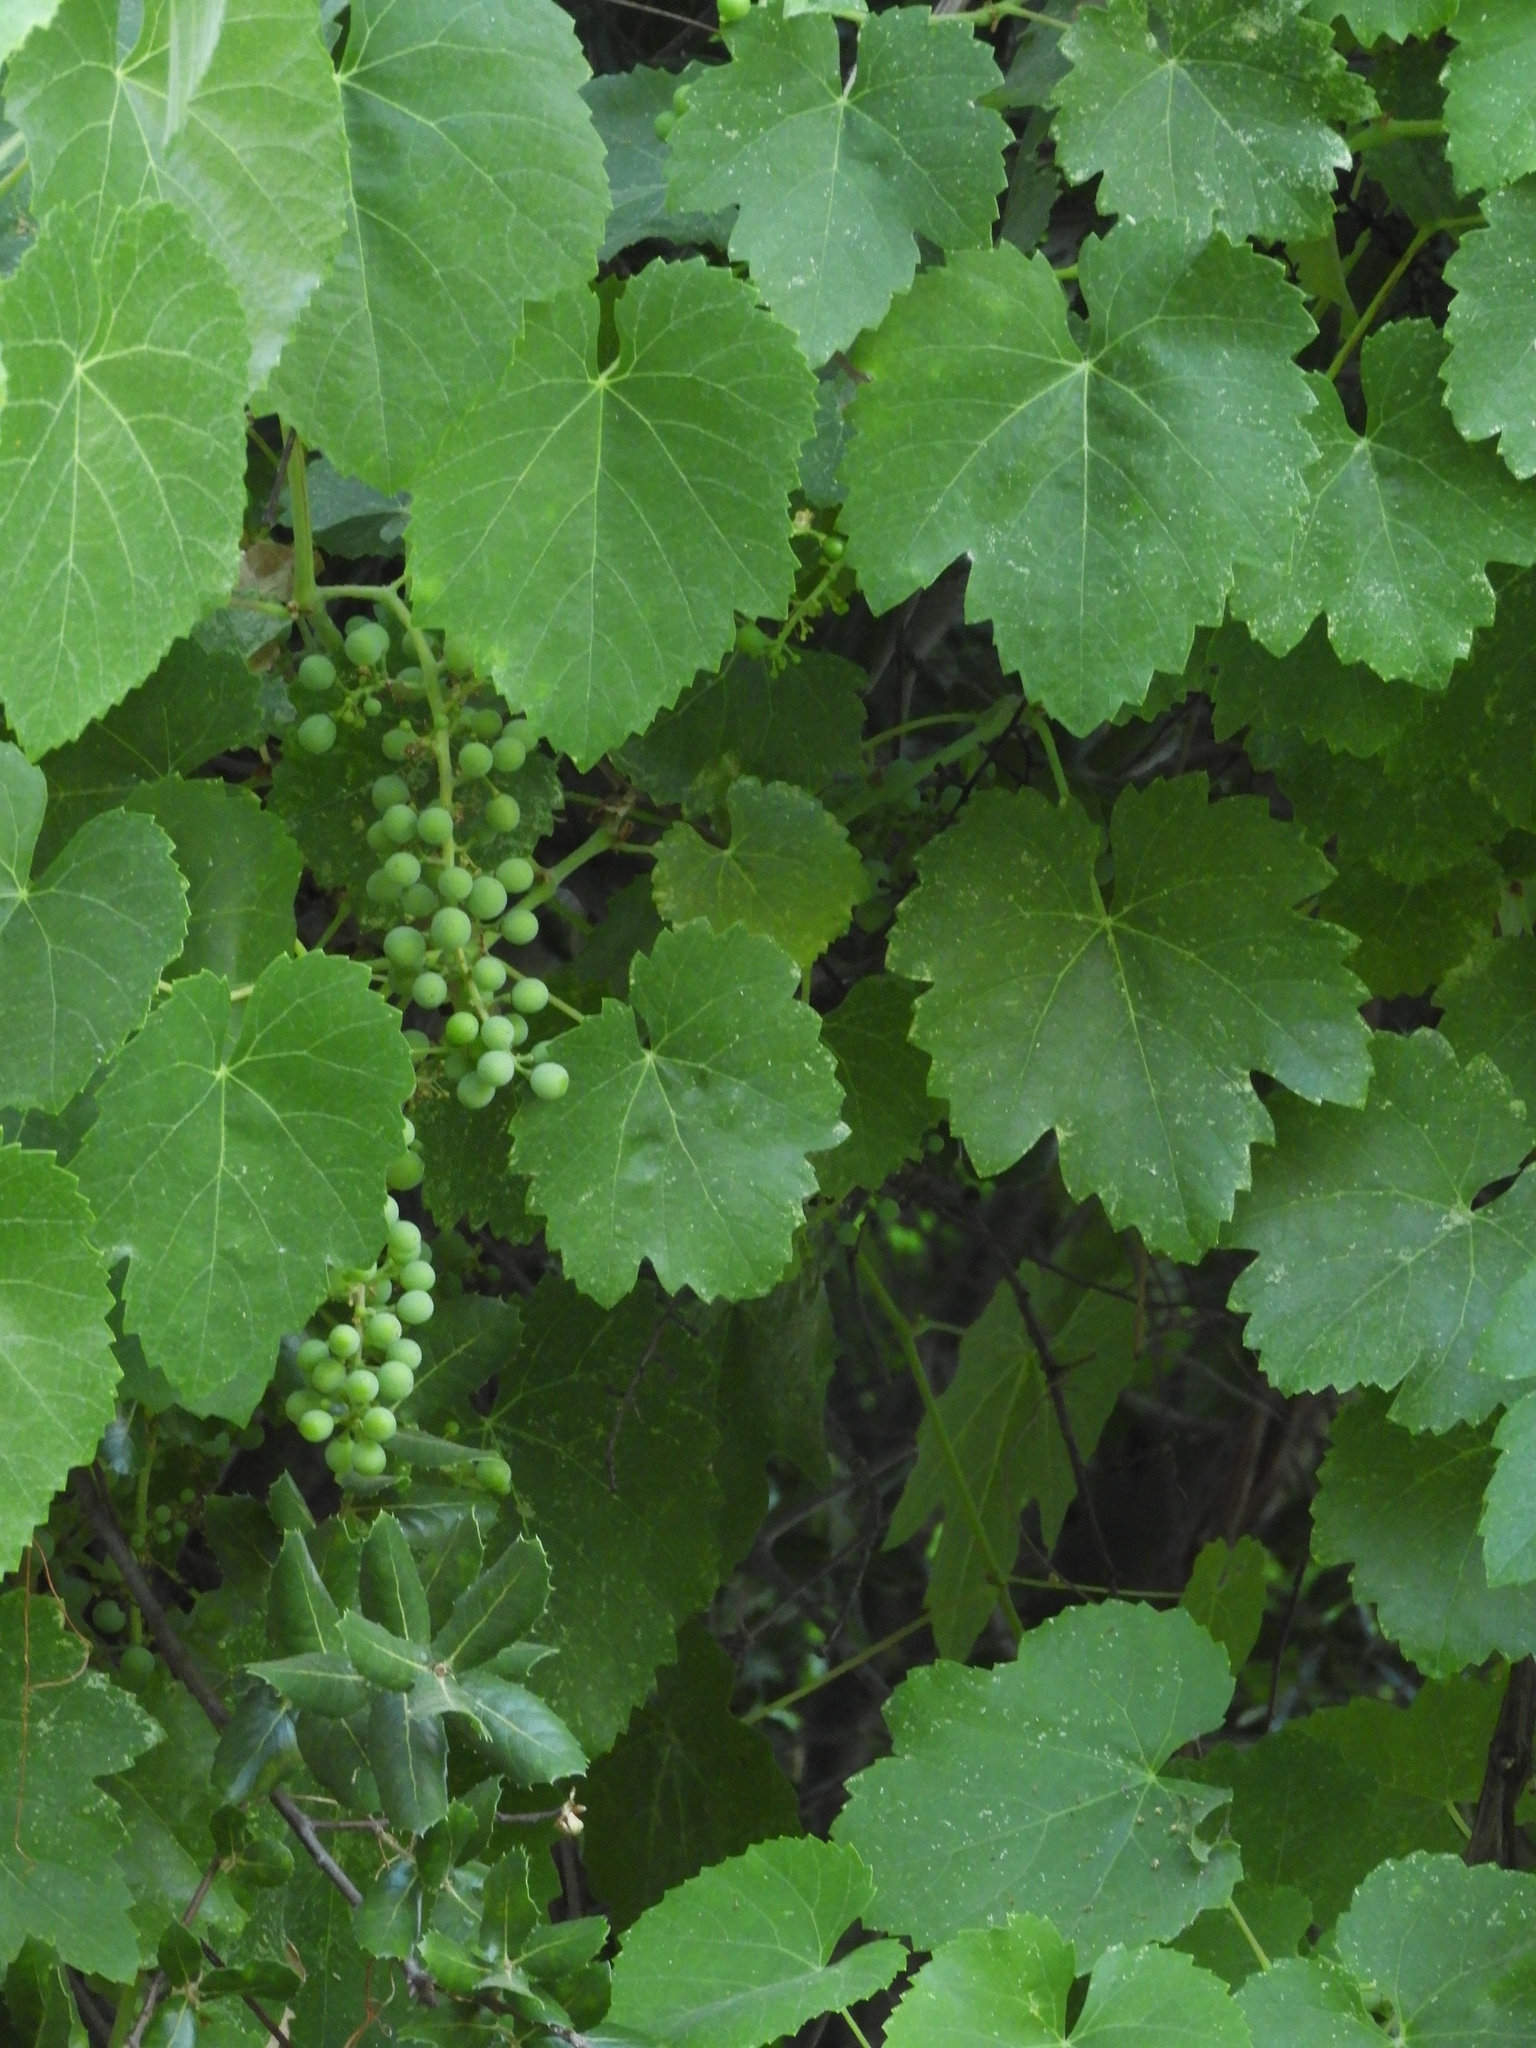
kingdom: Plantae
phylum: Tracheophyta
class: Magnoliopsida
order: Vitales
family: Vitaceae
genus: Vitis
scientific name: Vitis californica
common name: California wild grape
